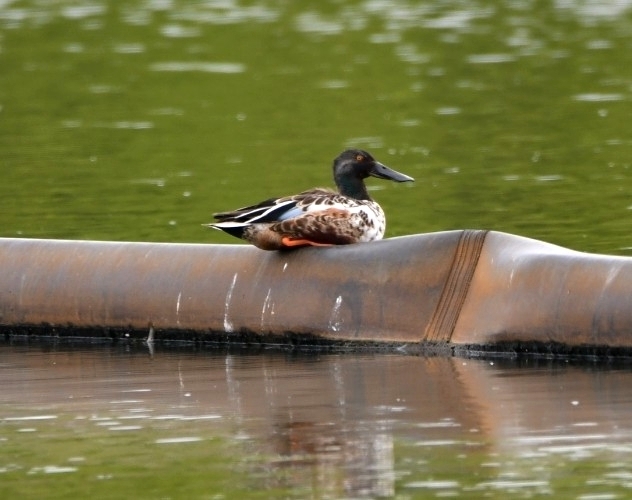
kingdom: Animalia
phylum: Chordata
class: Aves
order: Anseriformes
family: Anatidae
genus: Spatula
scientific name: Spatula clypeata
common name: Northern shoveler
